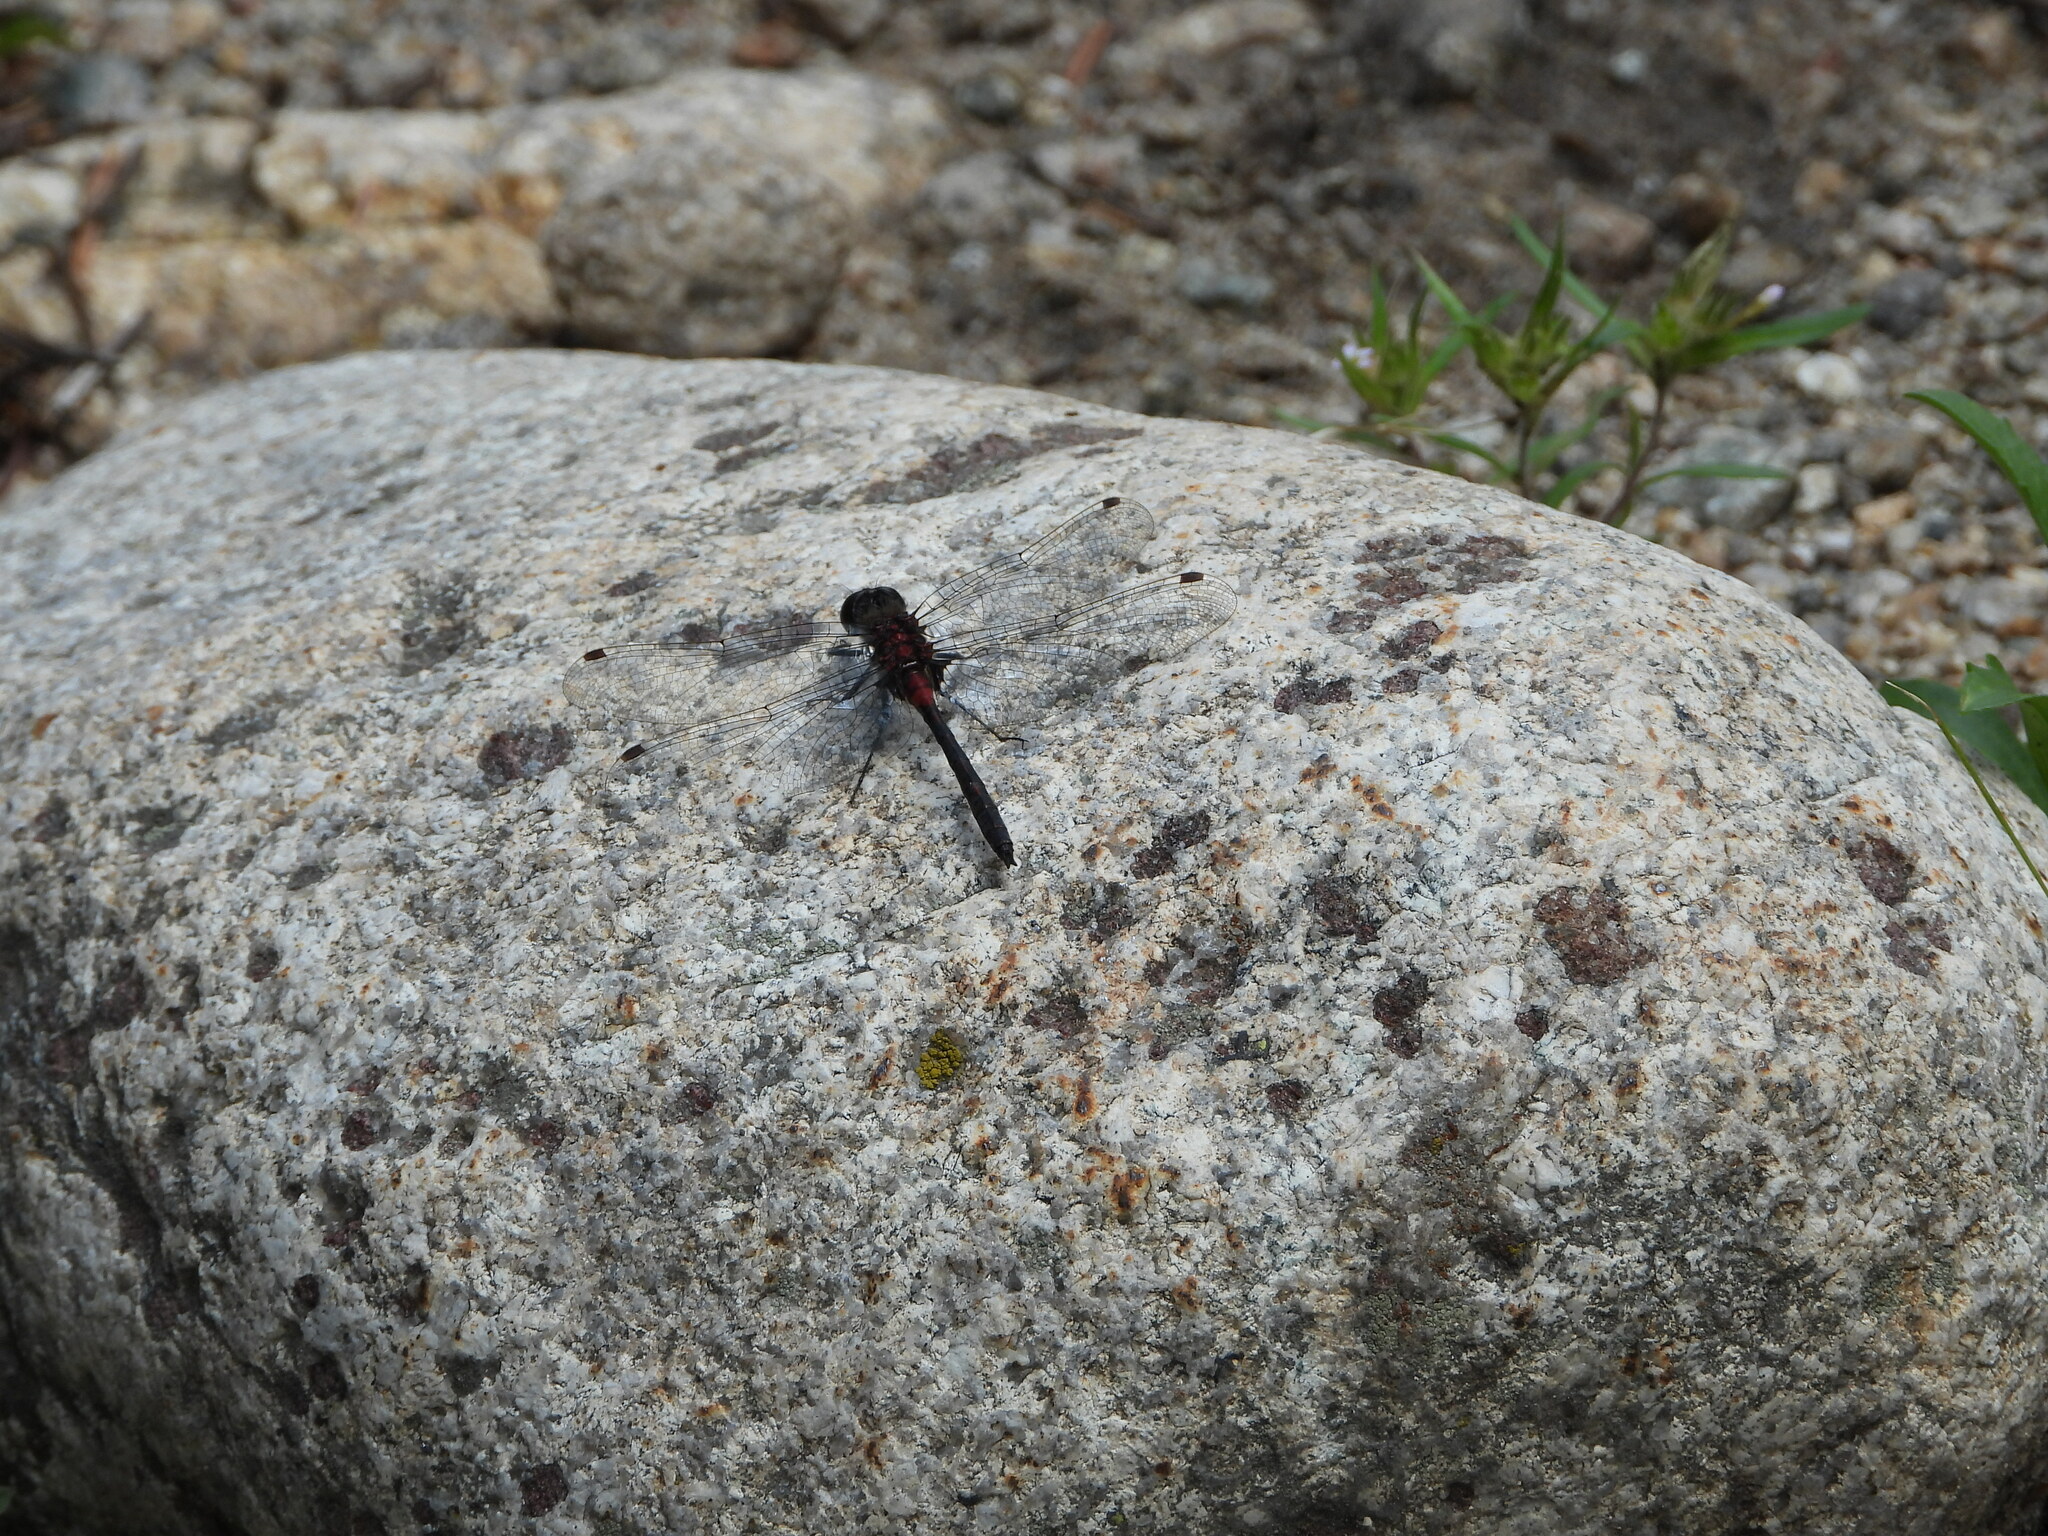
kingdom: Animalia
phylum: Arthropoda
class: Insecta
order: Odonata
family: Libellulidae
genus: Leucorrhinia
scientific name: Leucorrhinia proxima
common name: Belted whiteface
